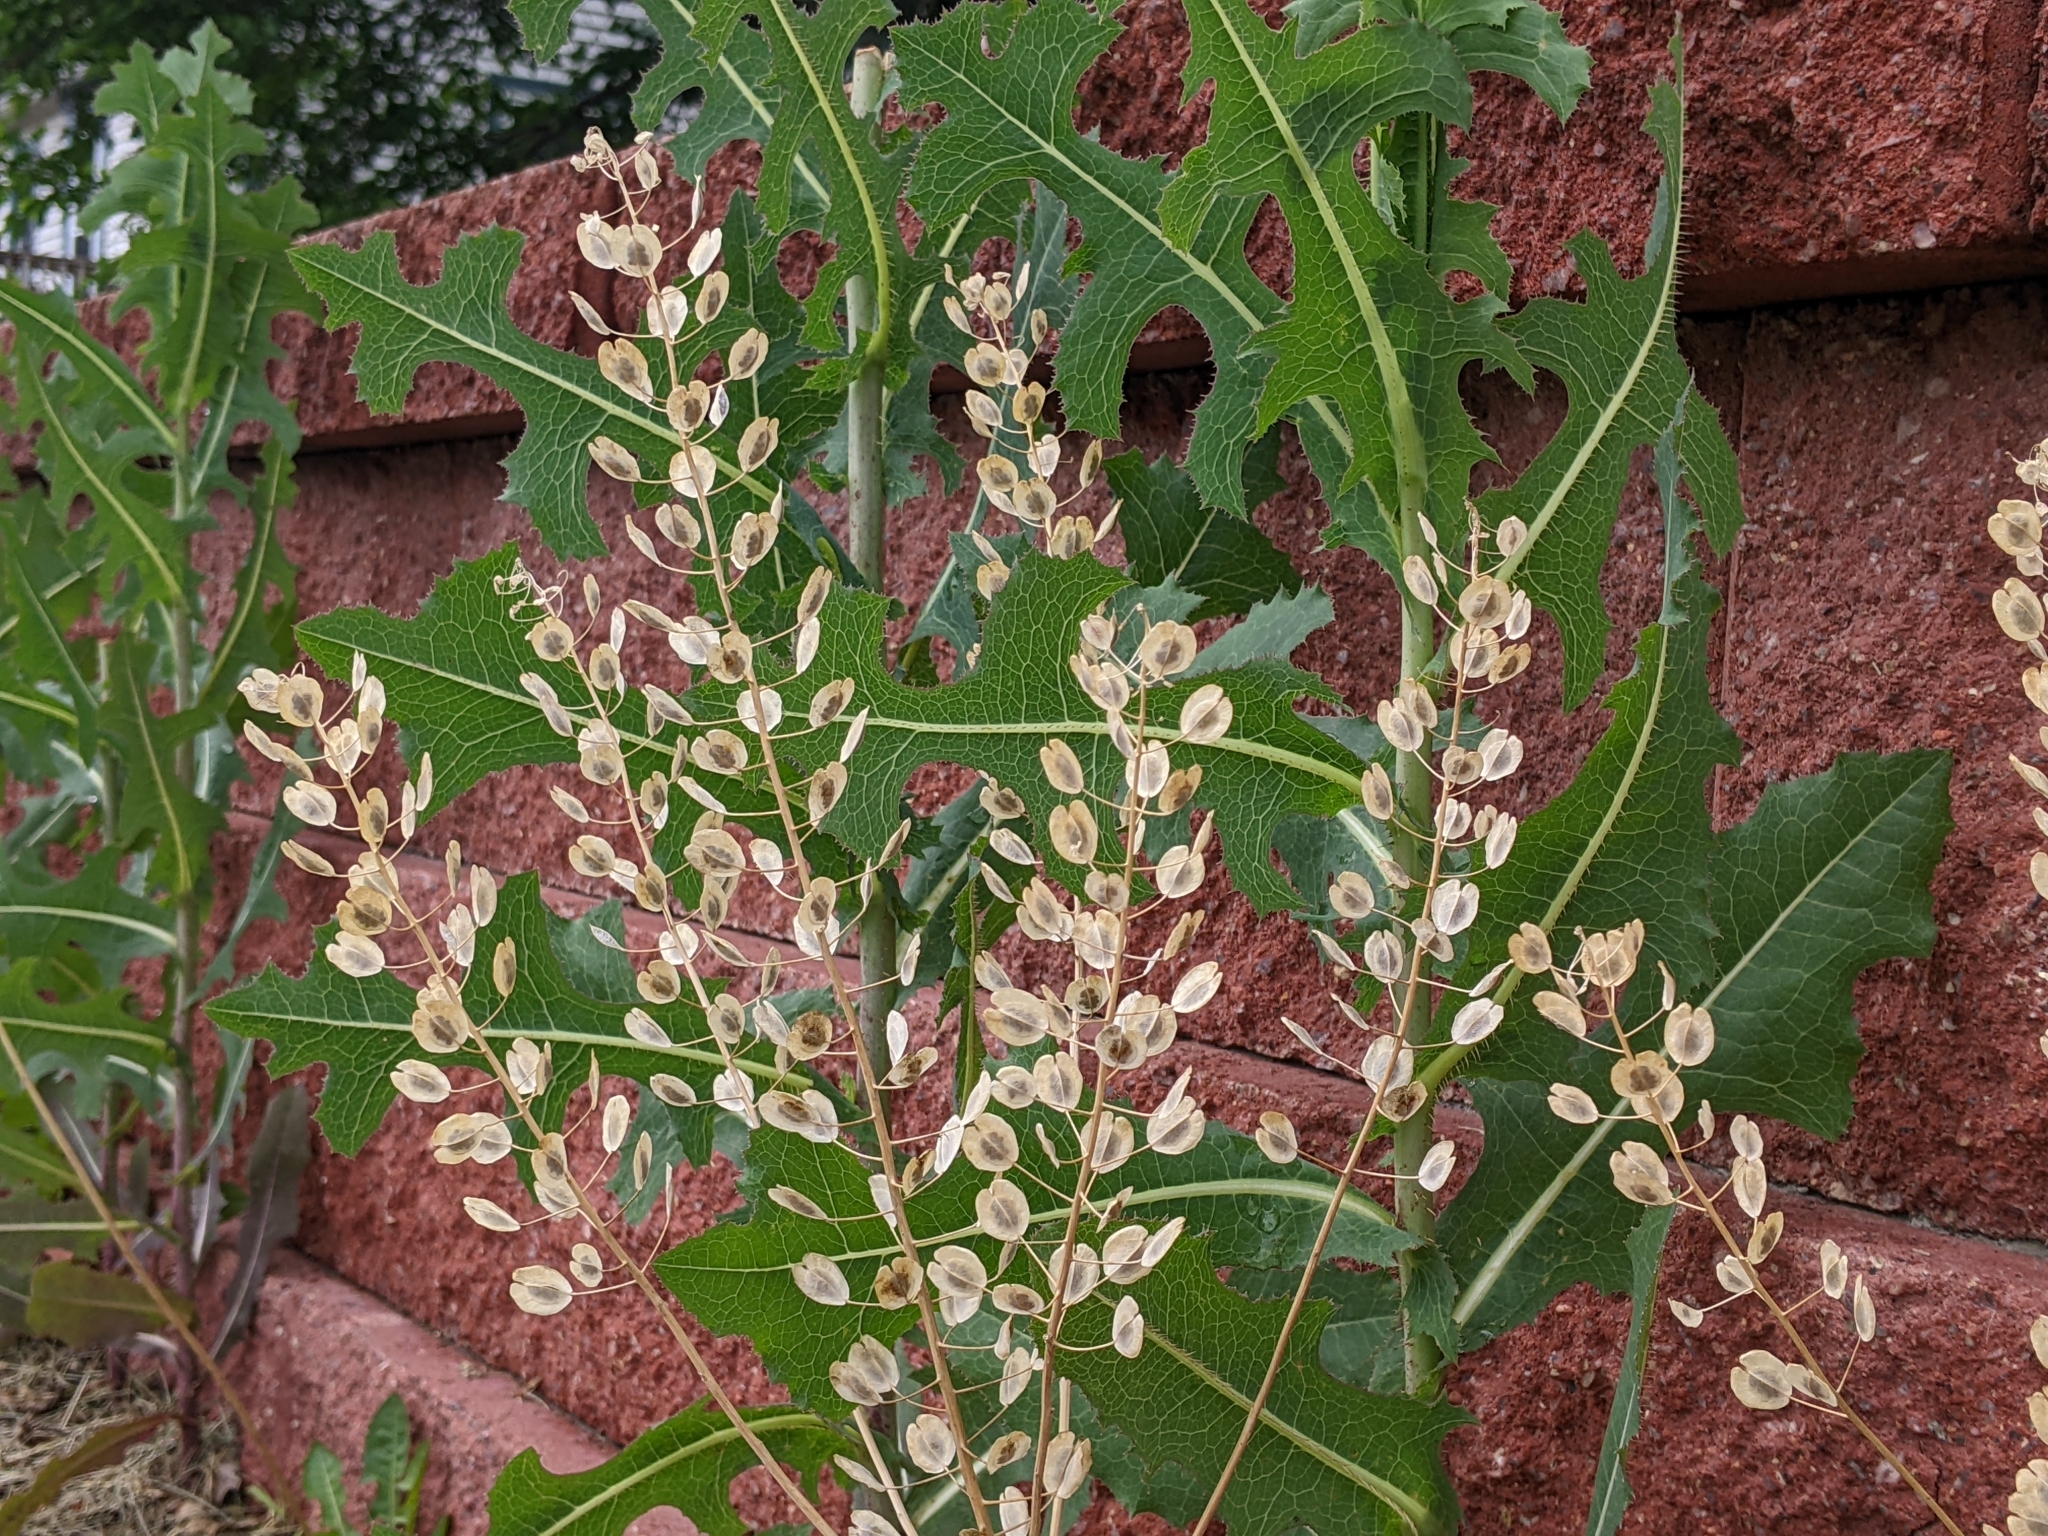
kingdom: Plantae
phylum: Tracheophyta
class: Magnoliopsida
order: Brassicales
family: Brassicaceae
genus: Thlaspi
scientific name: Thlaspi arvense
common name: Field pennycress
